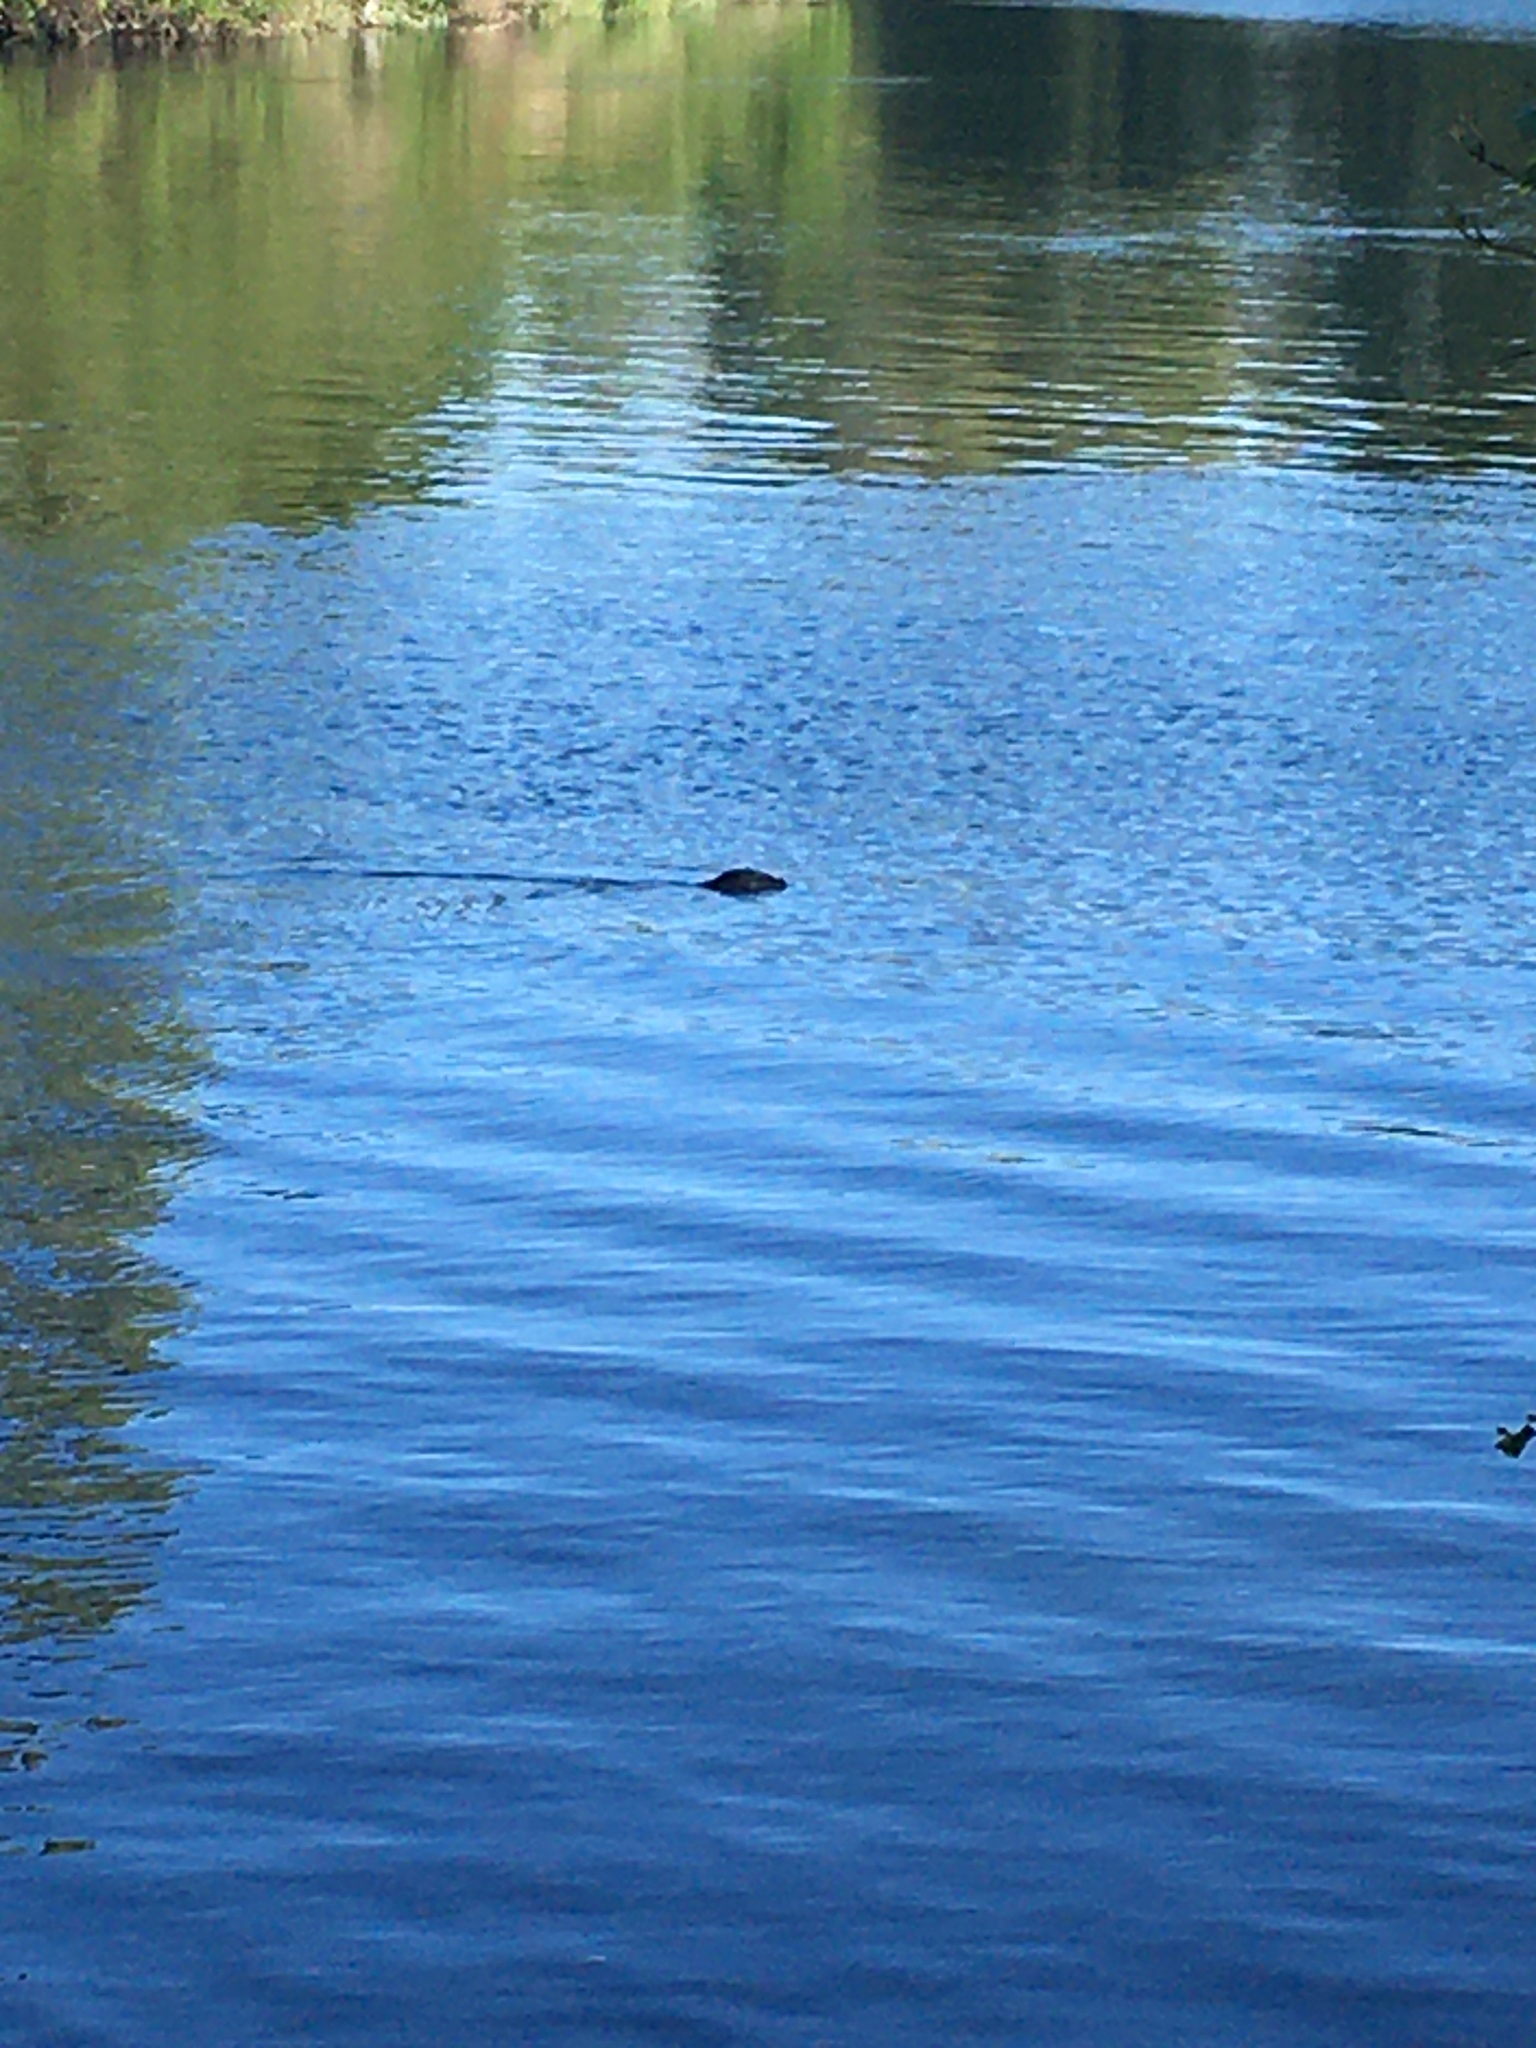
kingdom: Animalia
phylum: Chordata
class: Mammalia
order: Carnivora
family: Phocidae
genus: Phoca
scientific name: Phoca vitulina
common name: Harbor seal
